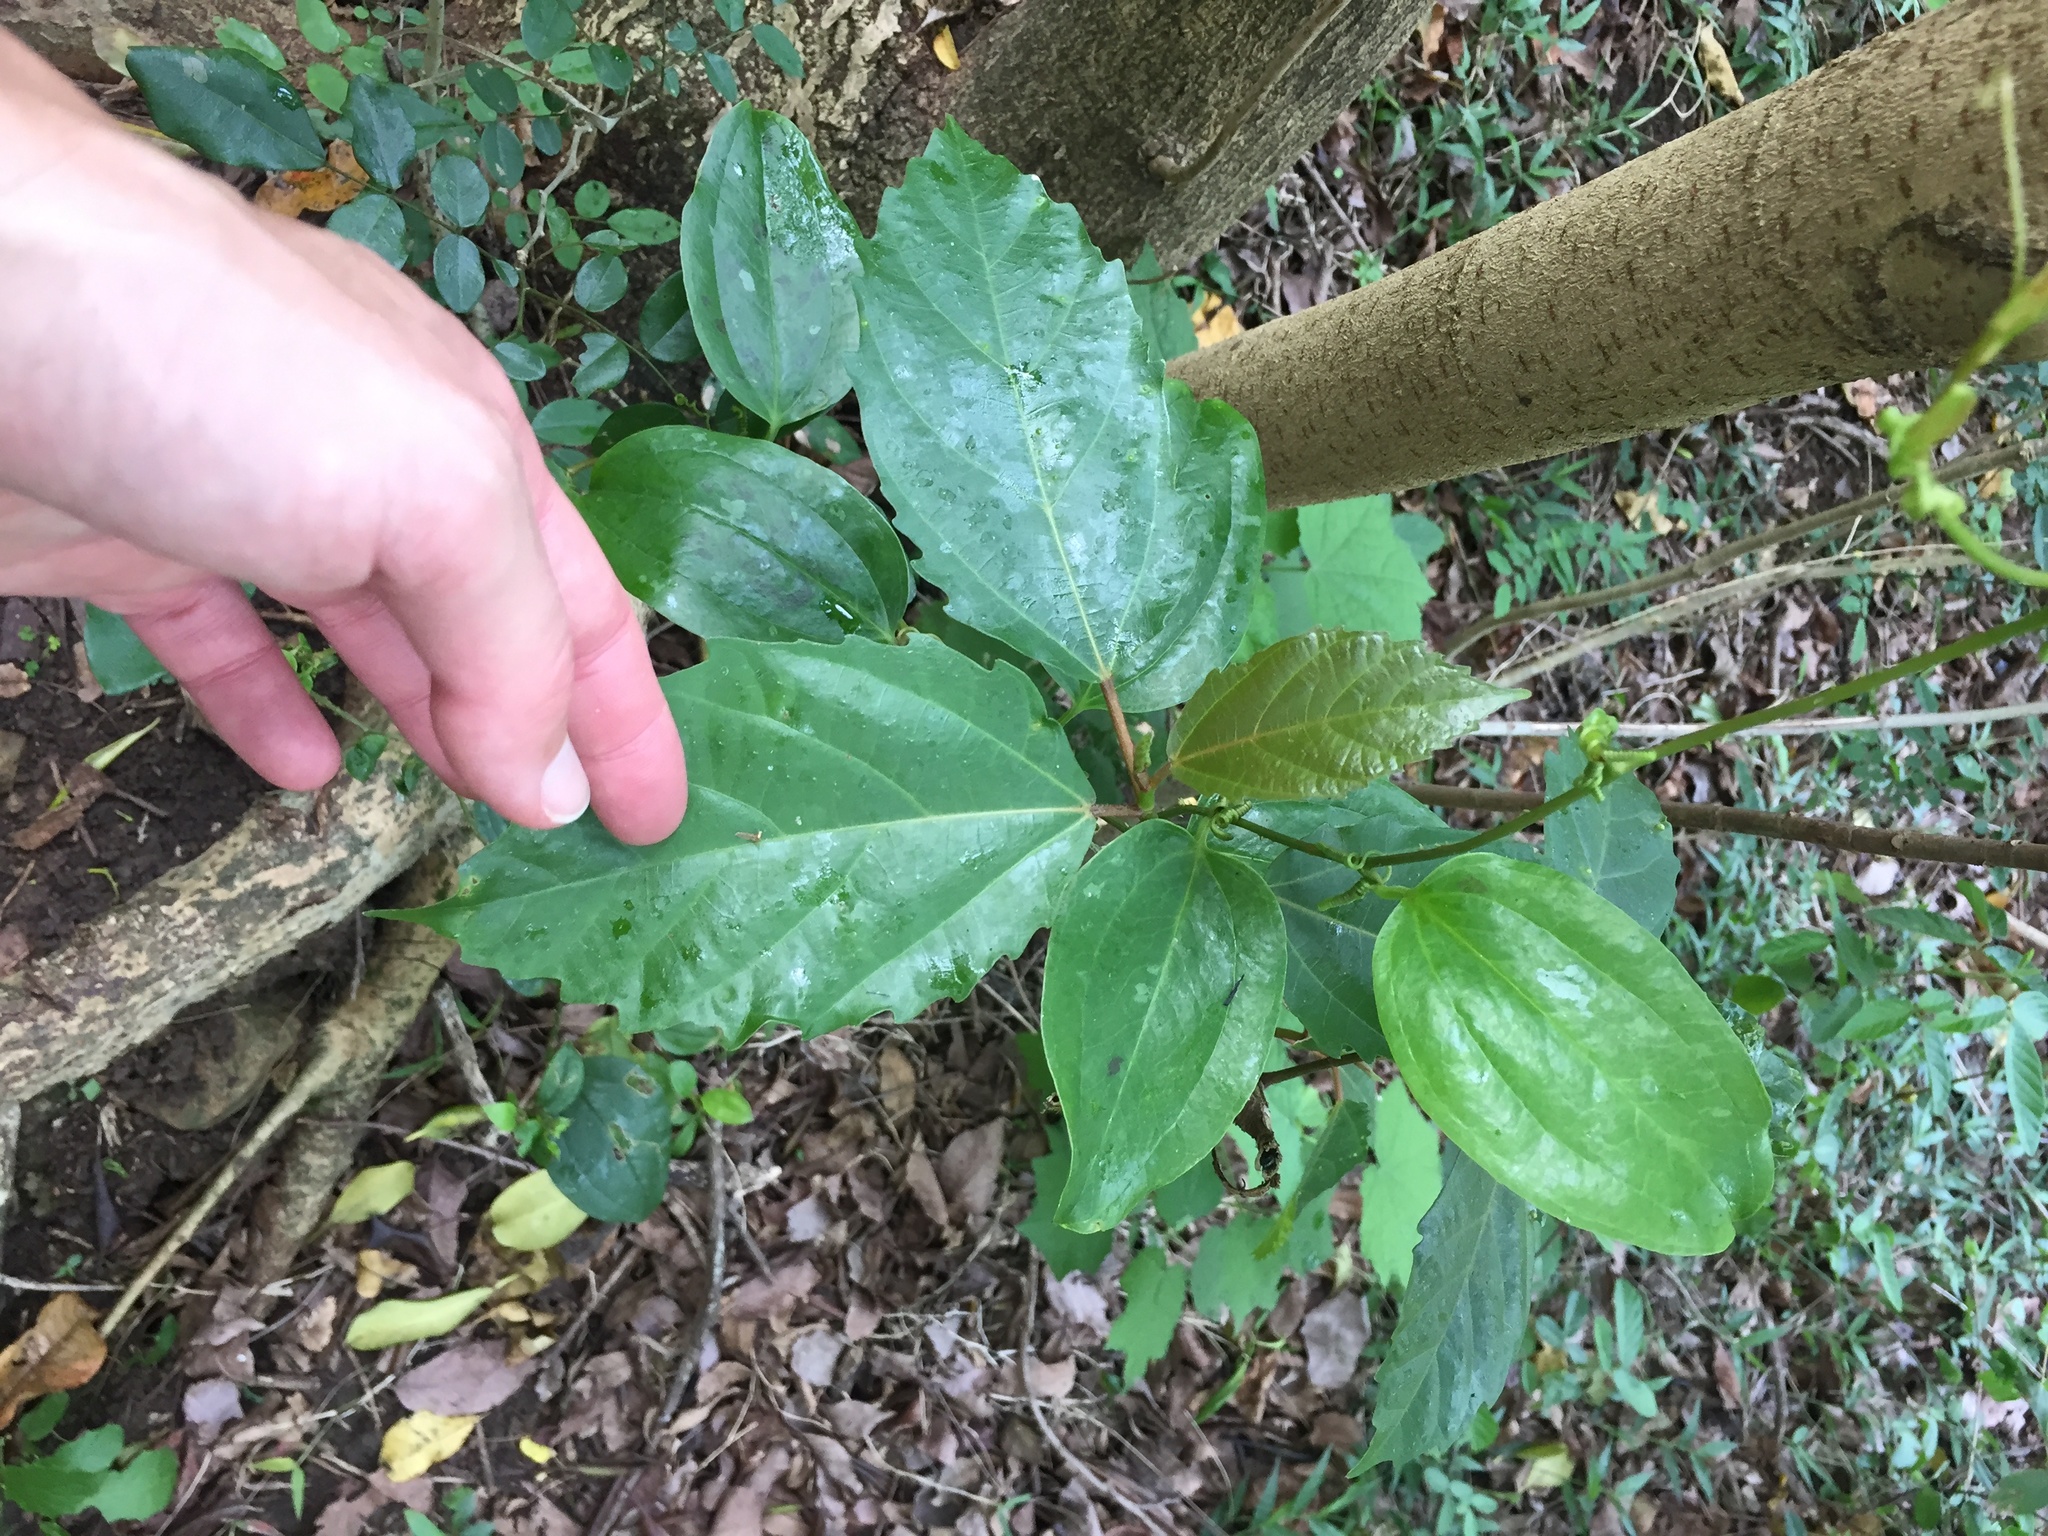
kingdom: Plantae
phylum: Tracheophyta
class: Magnoliopsida
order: Rosales
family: Moraceae
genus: Ficus
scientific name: Ficus sur
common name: Cape fig
